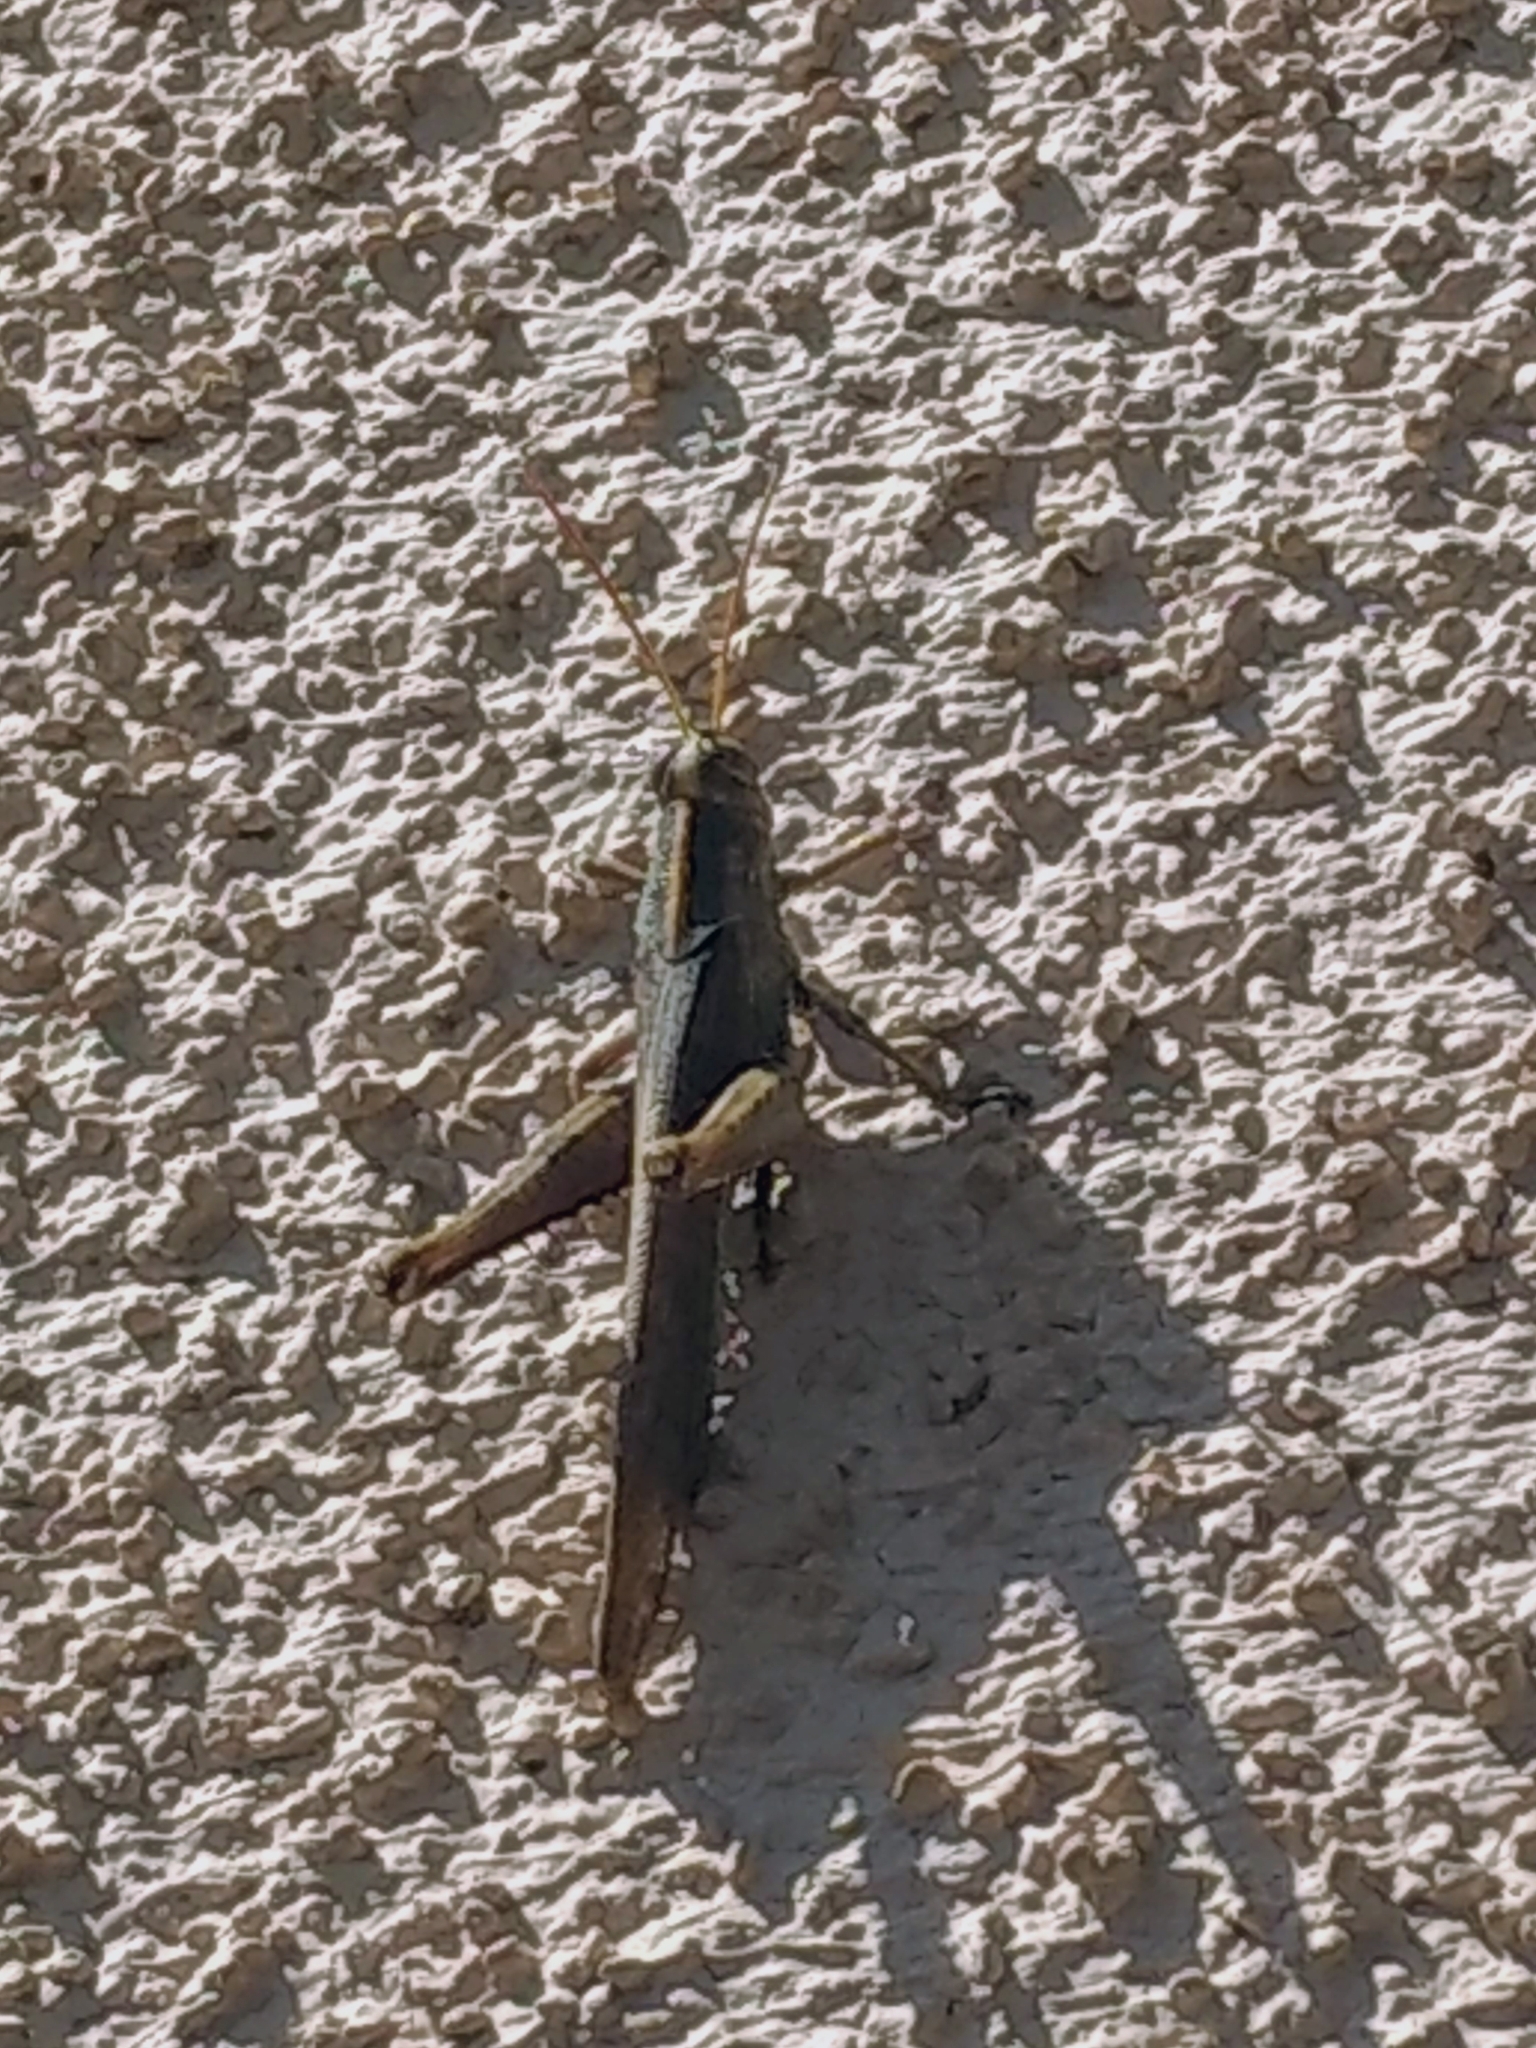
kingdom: Animalia
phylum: Arthropoda
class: Insecta
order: Orthoptera
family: Acrididae
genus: Schistocerca
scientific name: Schistocerca nitens
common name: Vagrant grasshopper
